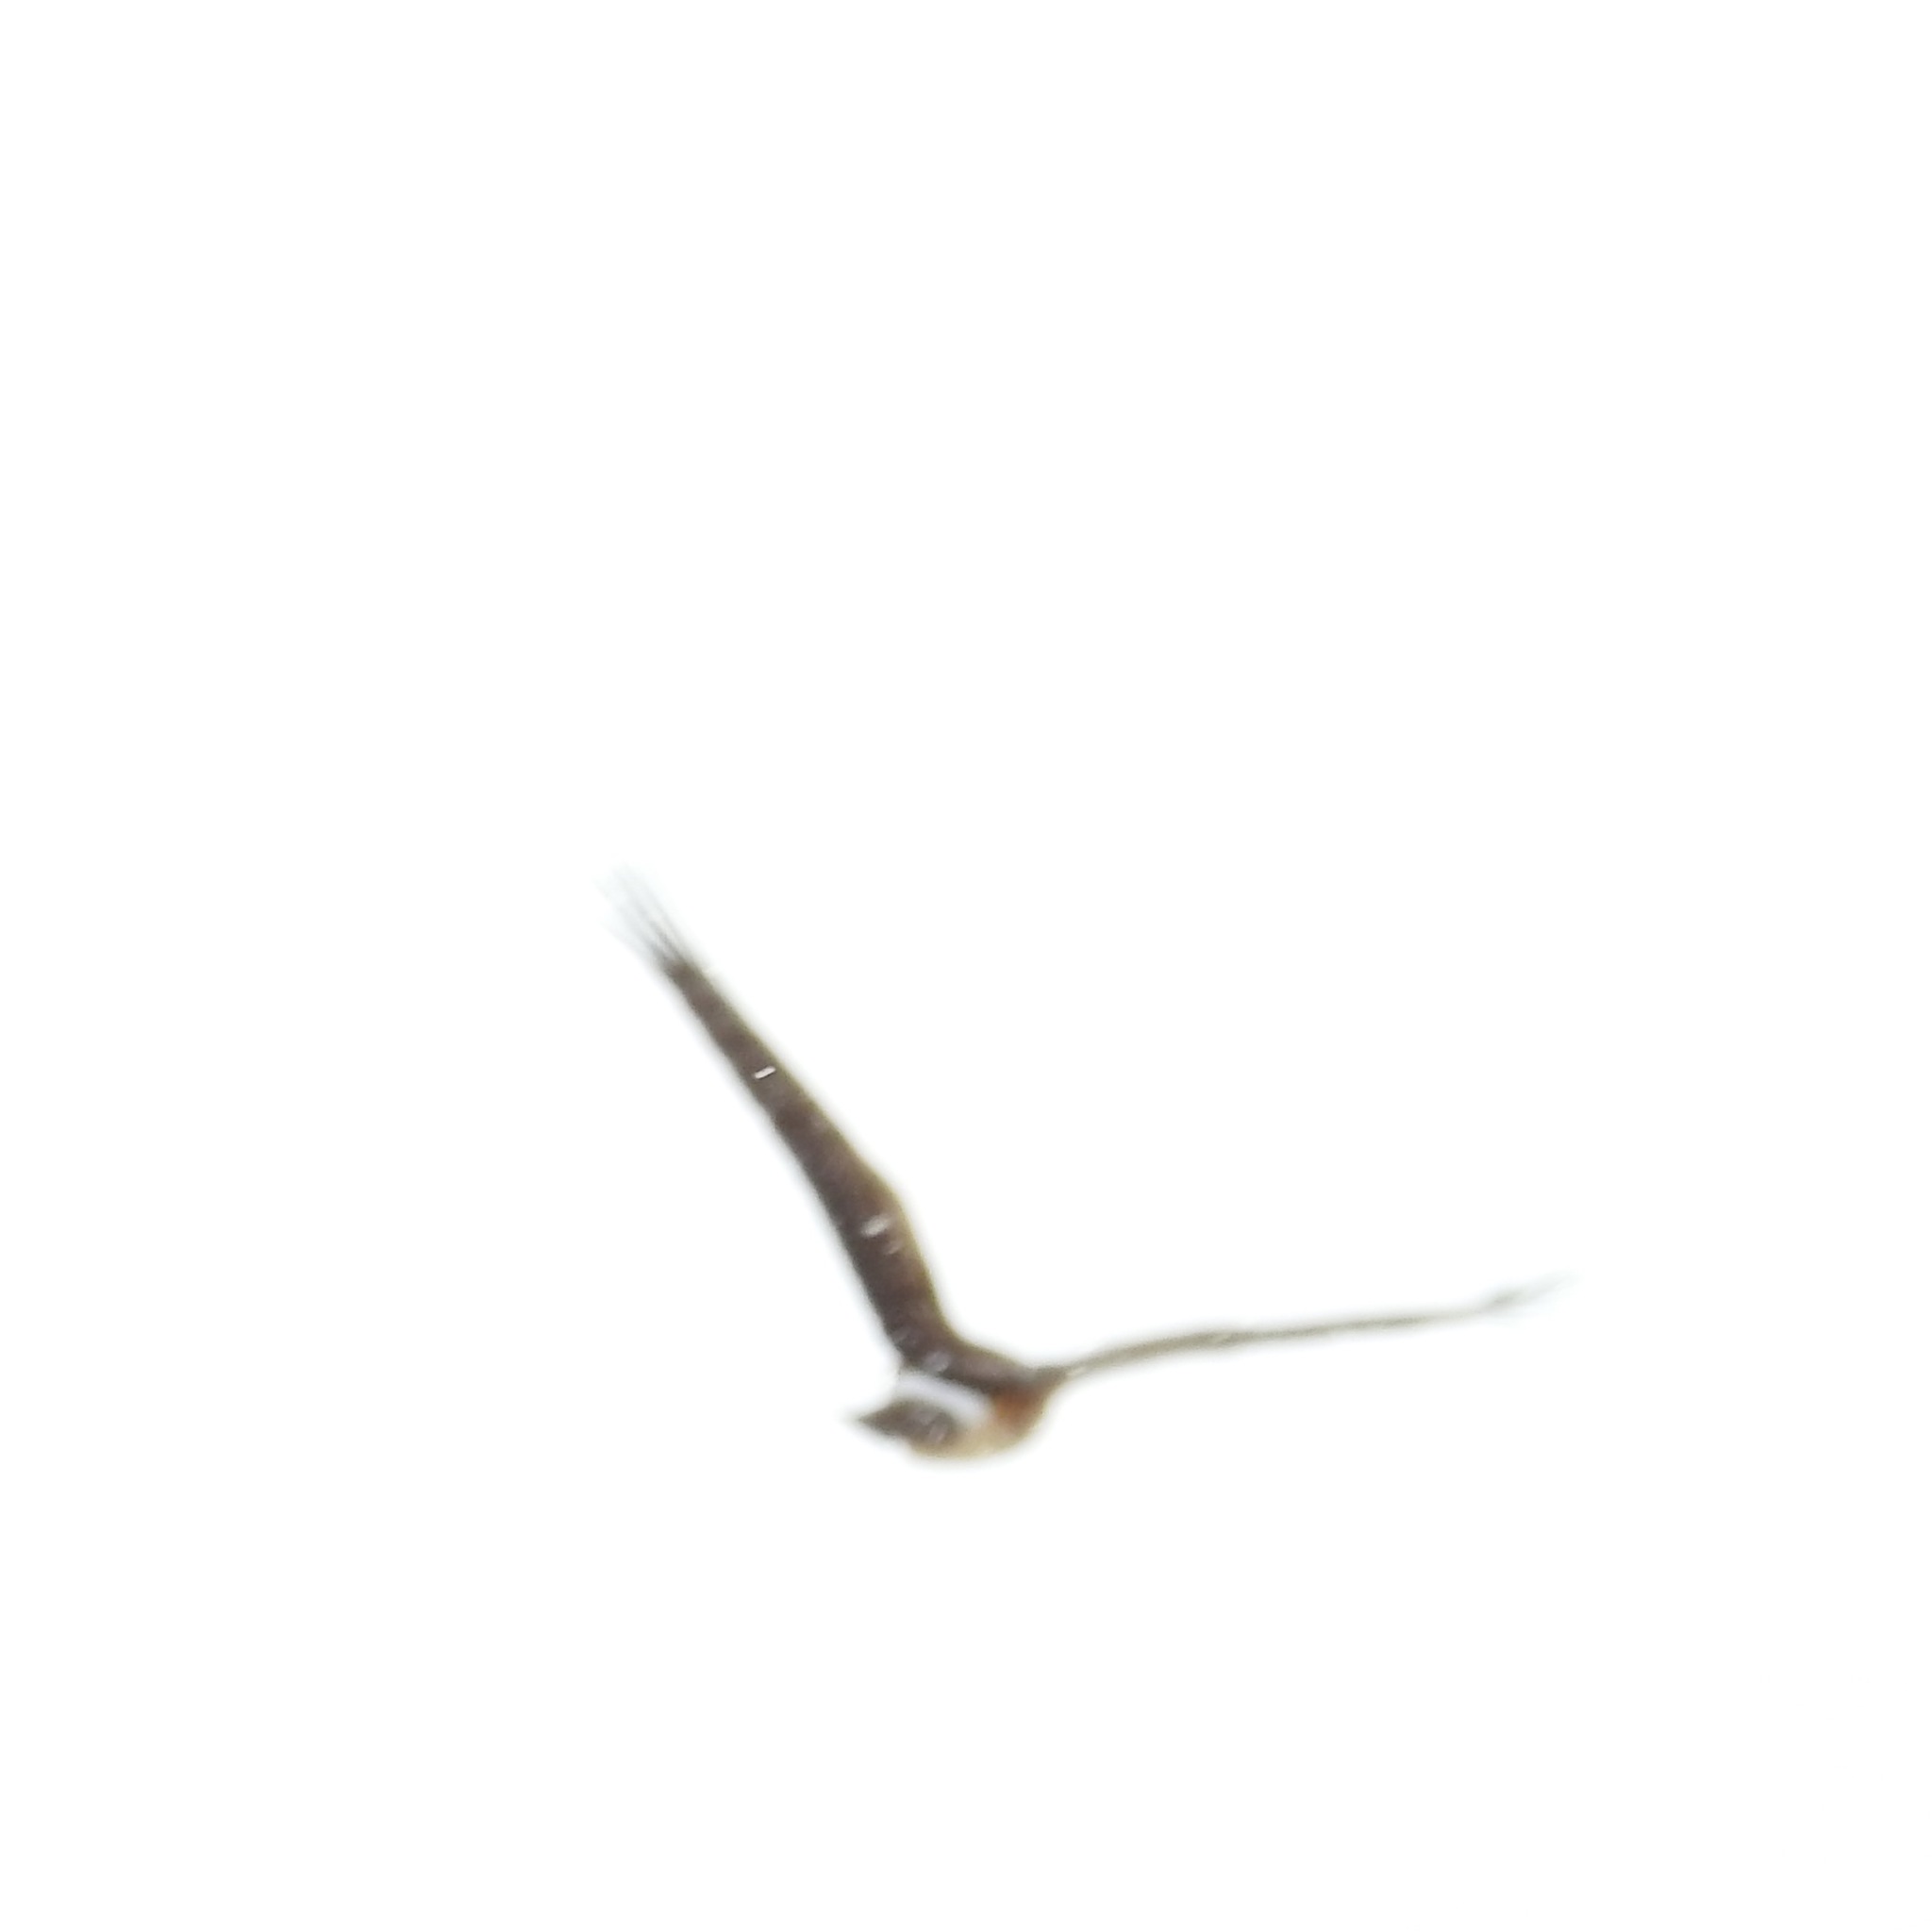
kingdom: Animalia
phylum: Chordata
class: Aves
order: Accipitriformes
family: Accipitridae
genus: Circus
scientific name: Circus cyaneus
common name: Hen harrier
